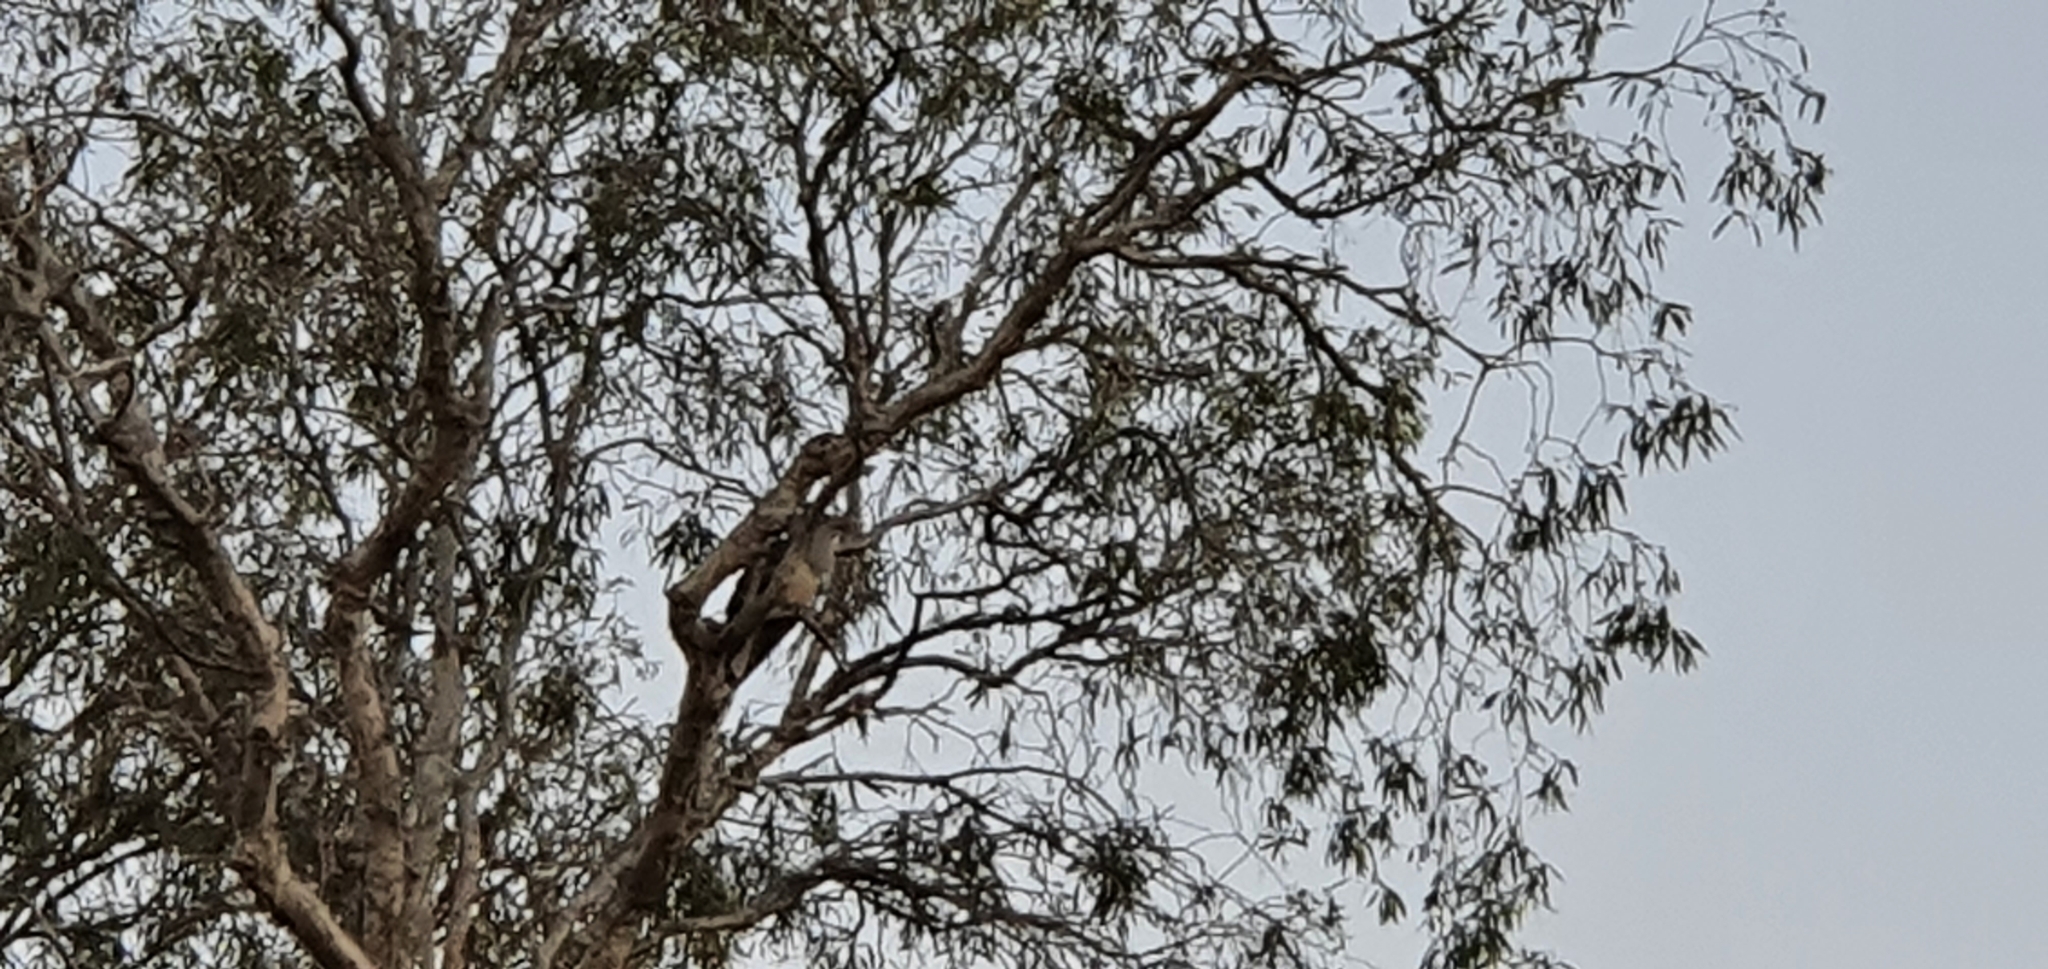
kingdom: Animalia
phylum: Chordata
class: Aves
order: Cuculiformes
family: Cuculidae
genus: Scythrops
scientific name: Scythrops novaehollandiae
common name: Channel-billed cuckoo
